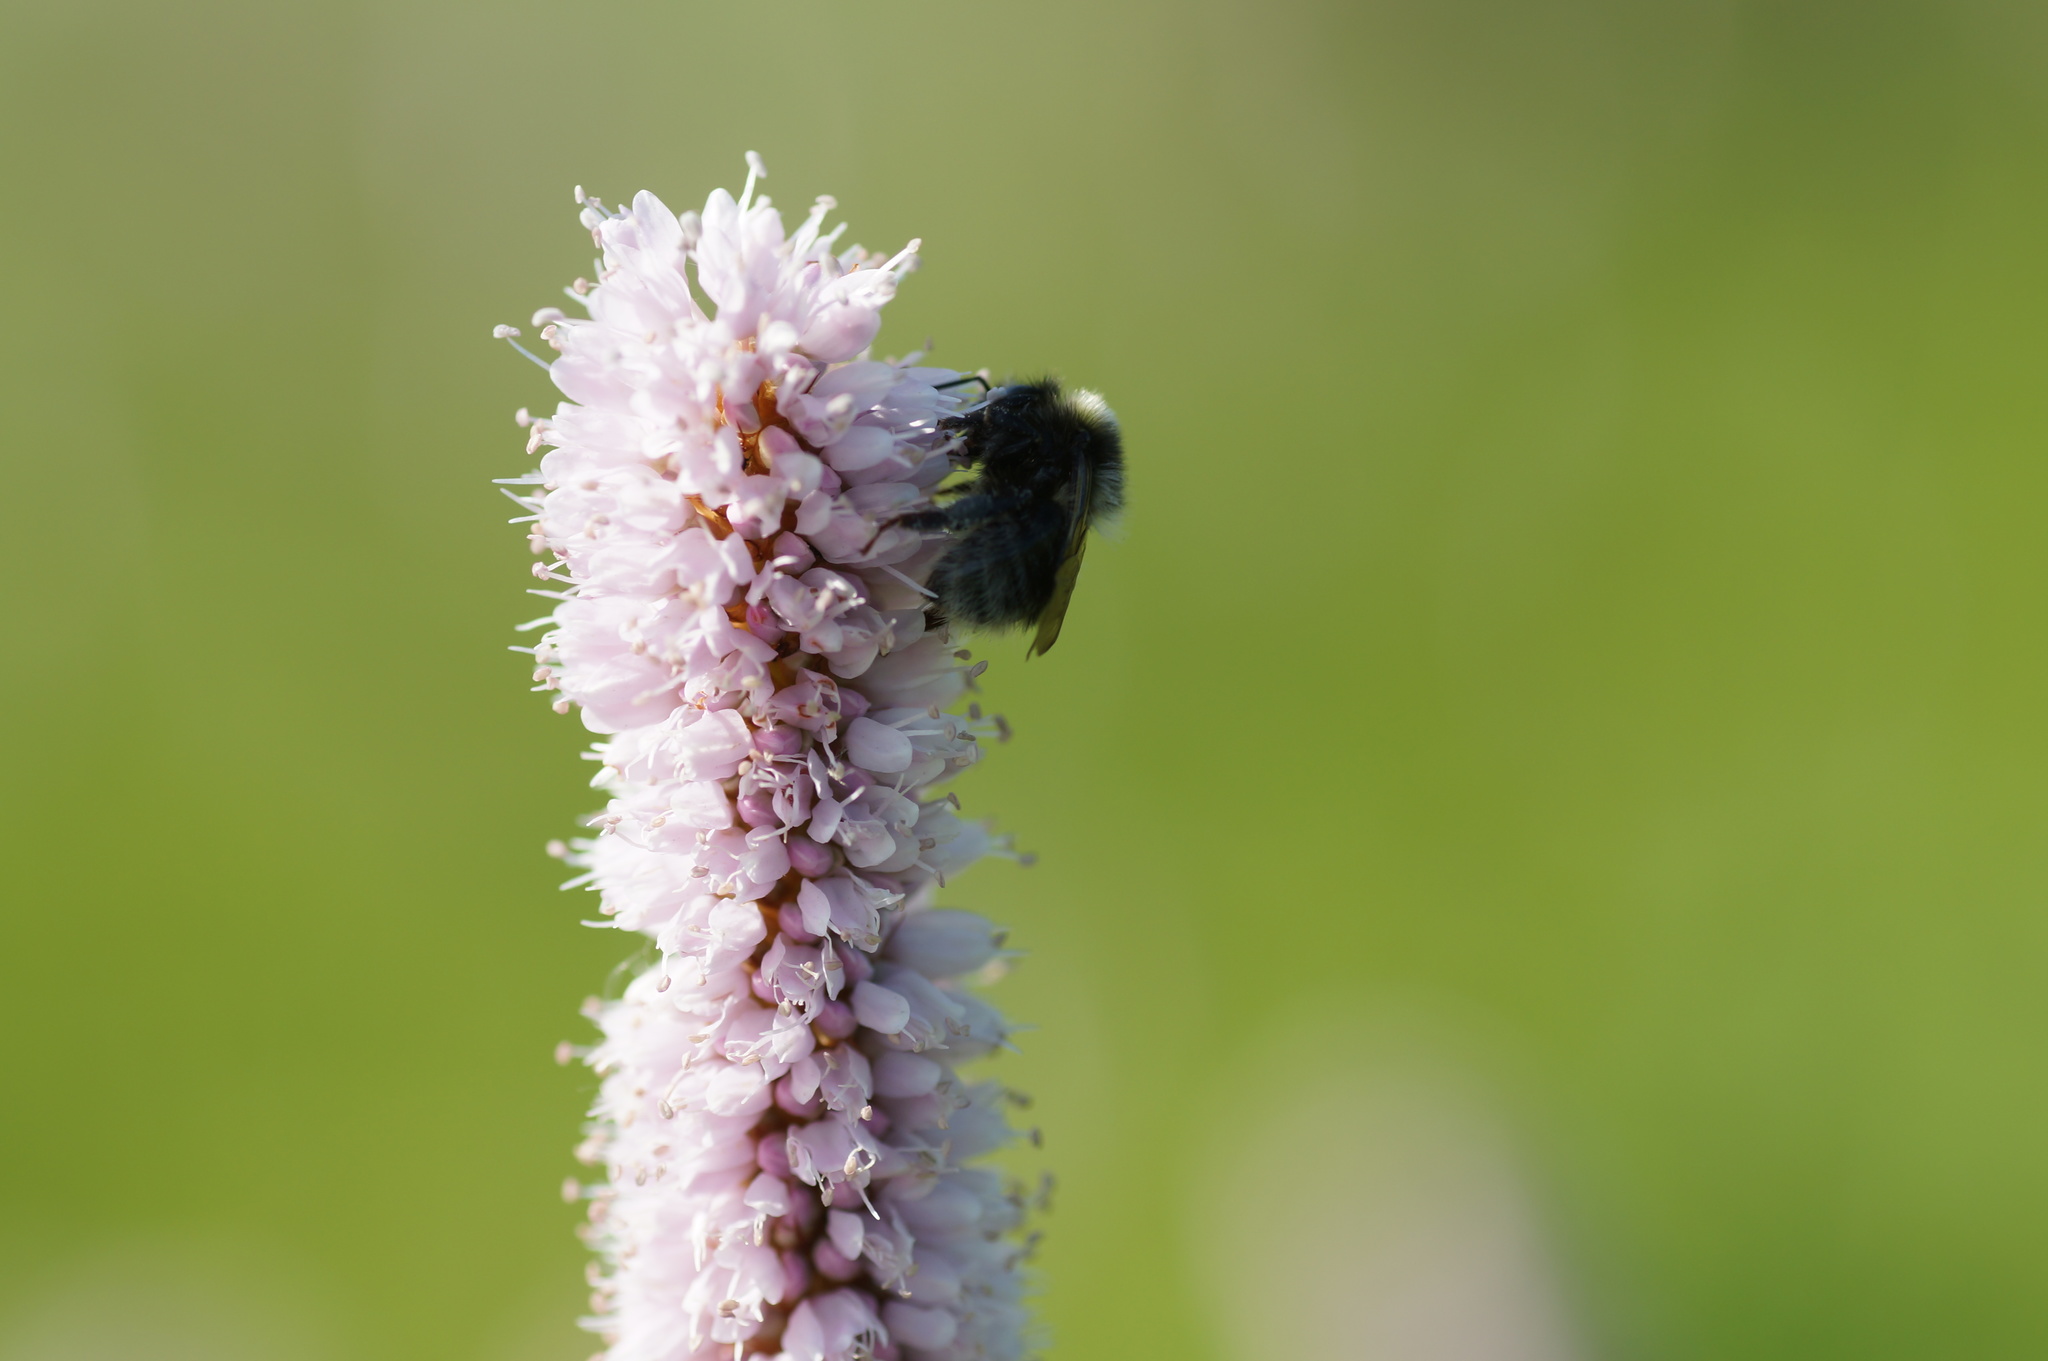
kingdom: Animalia
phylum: Arthropoda
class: Insecta
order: Hymenoptera
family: Apidae
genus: Bombus
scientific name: Bombus
